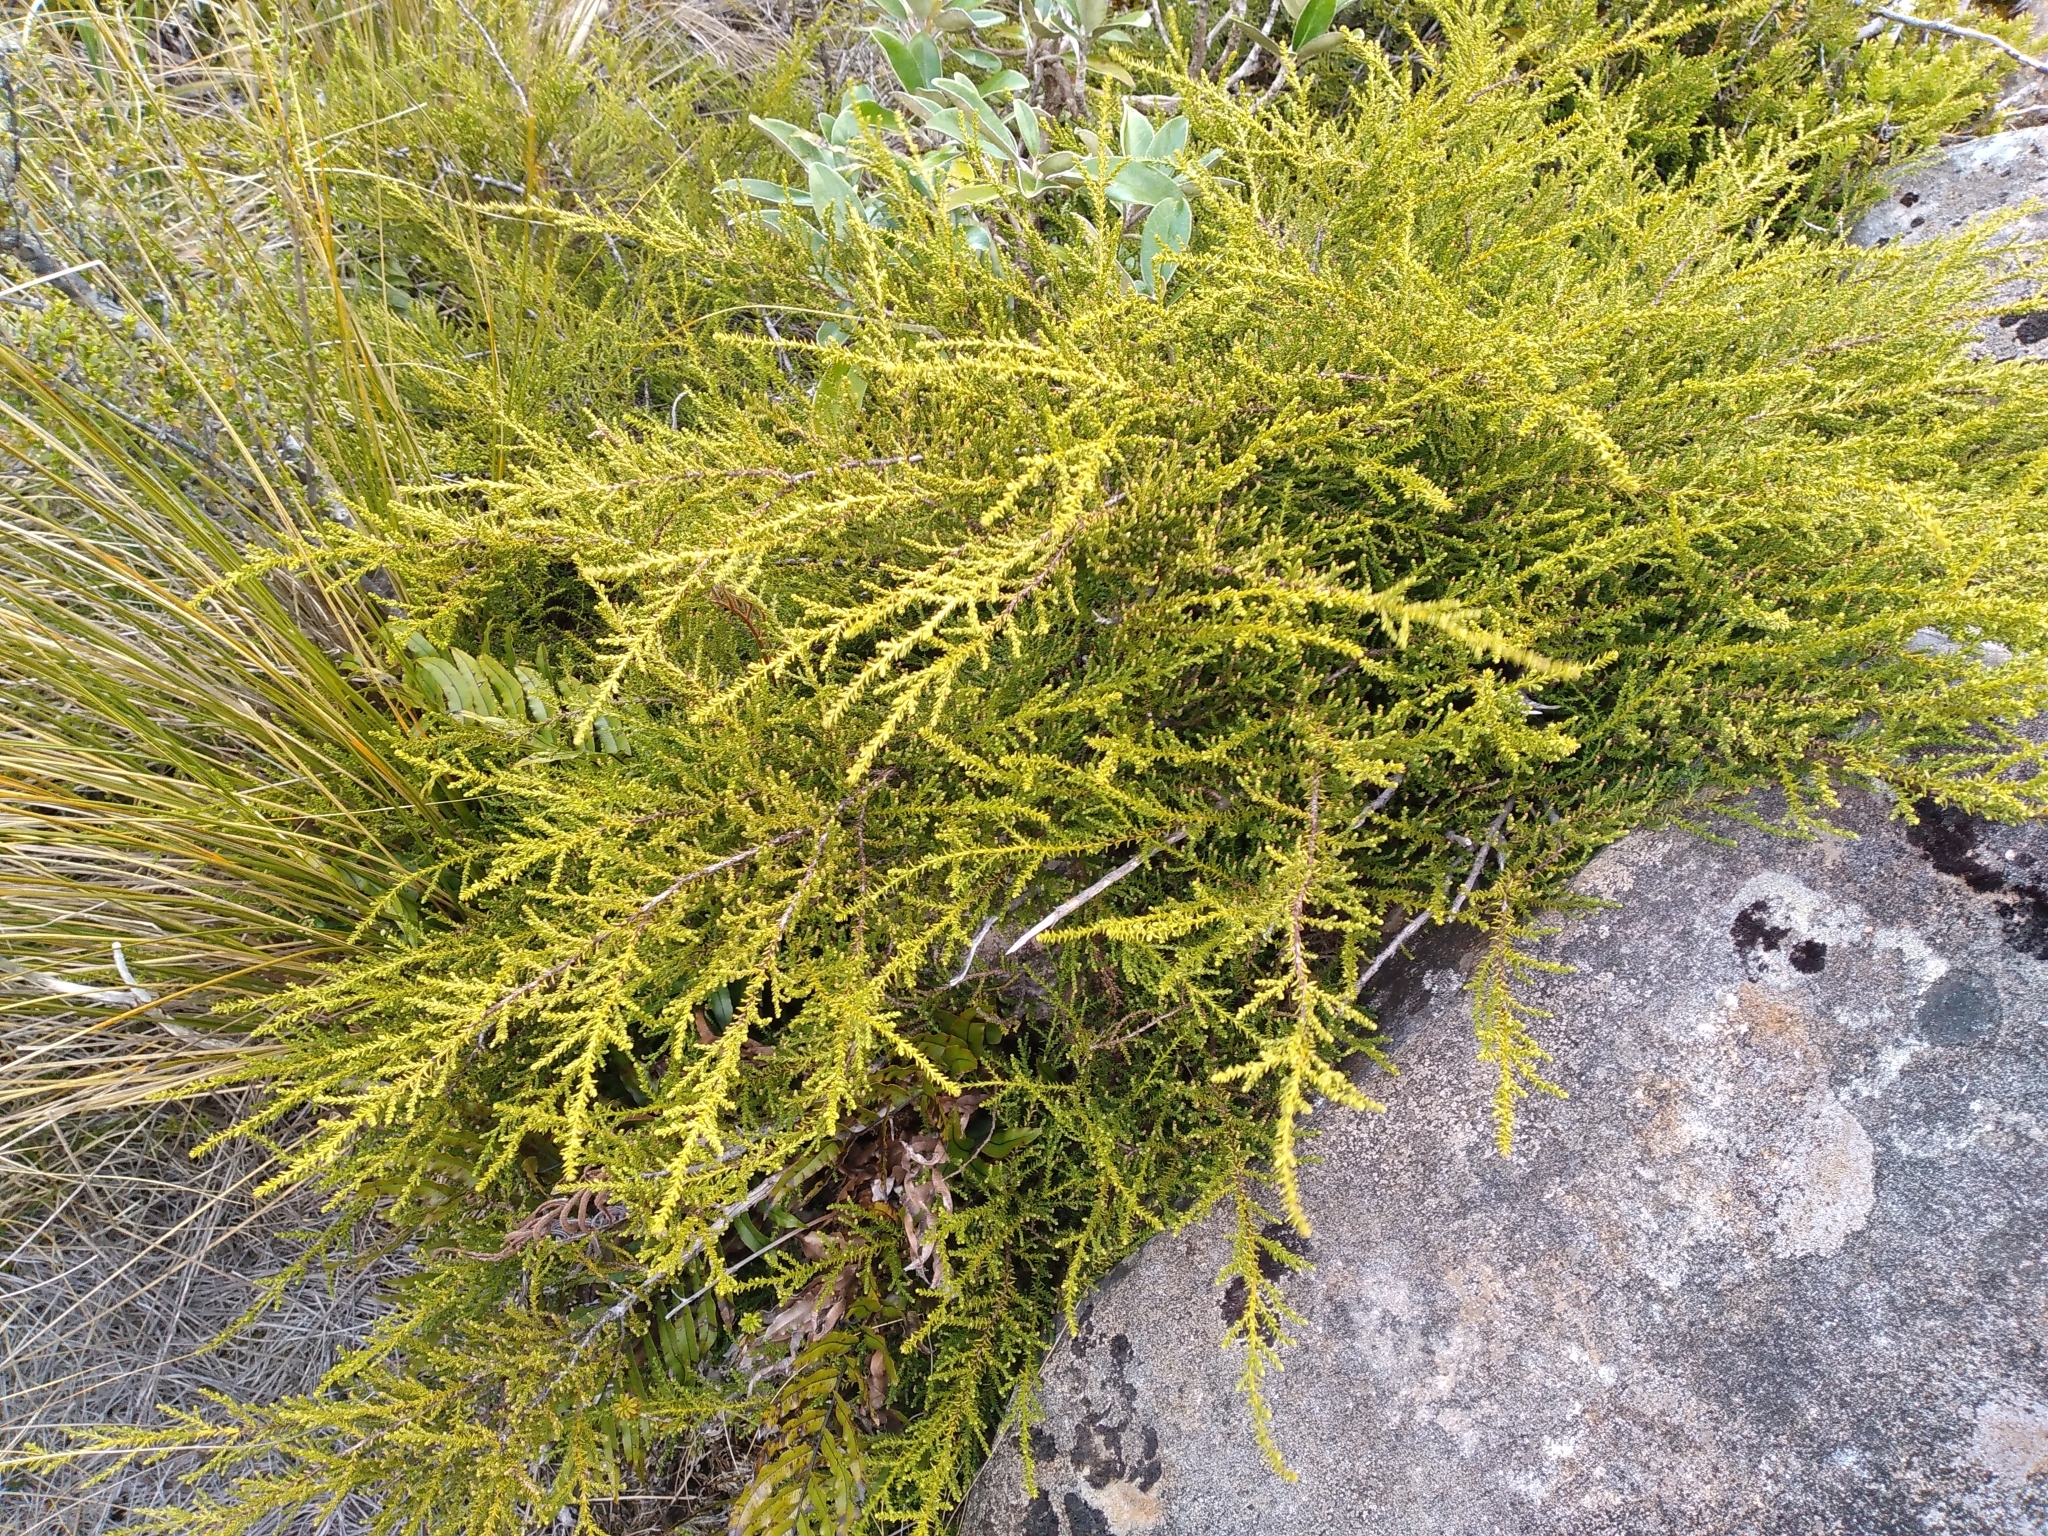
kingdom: Plantae
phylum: Tracheophyta
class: Pinopsida
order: Pinales
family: Podocarpaceae
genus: Lepidothamnus
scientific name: Lepidothamnus
